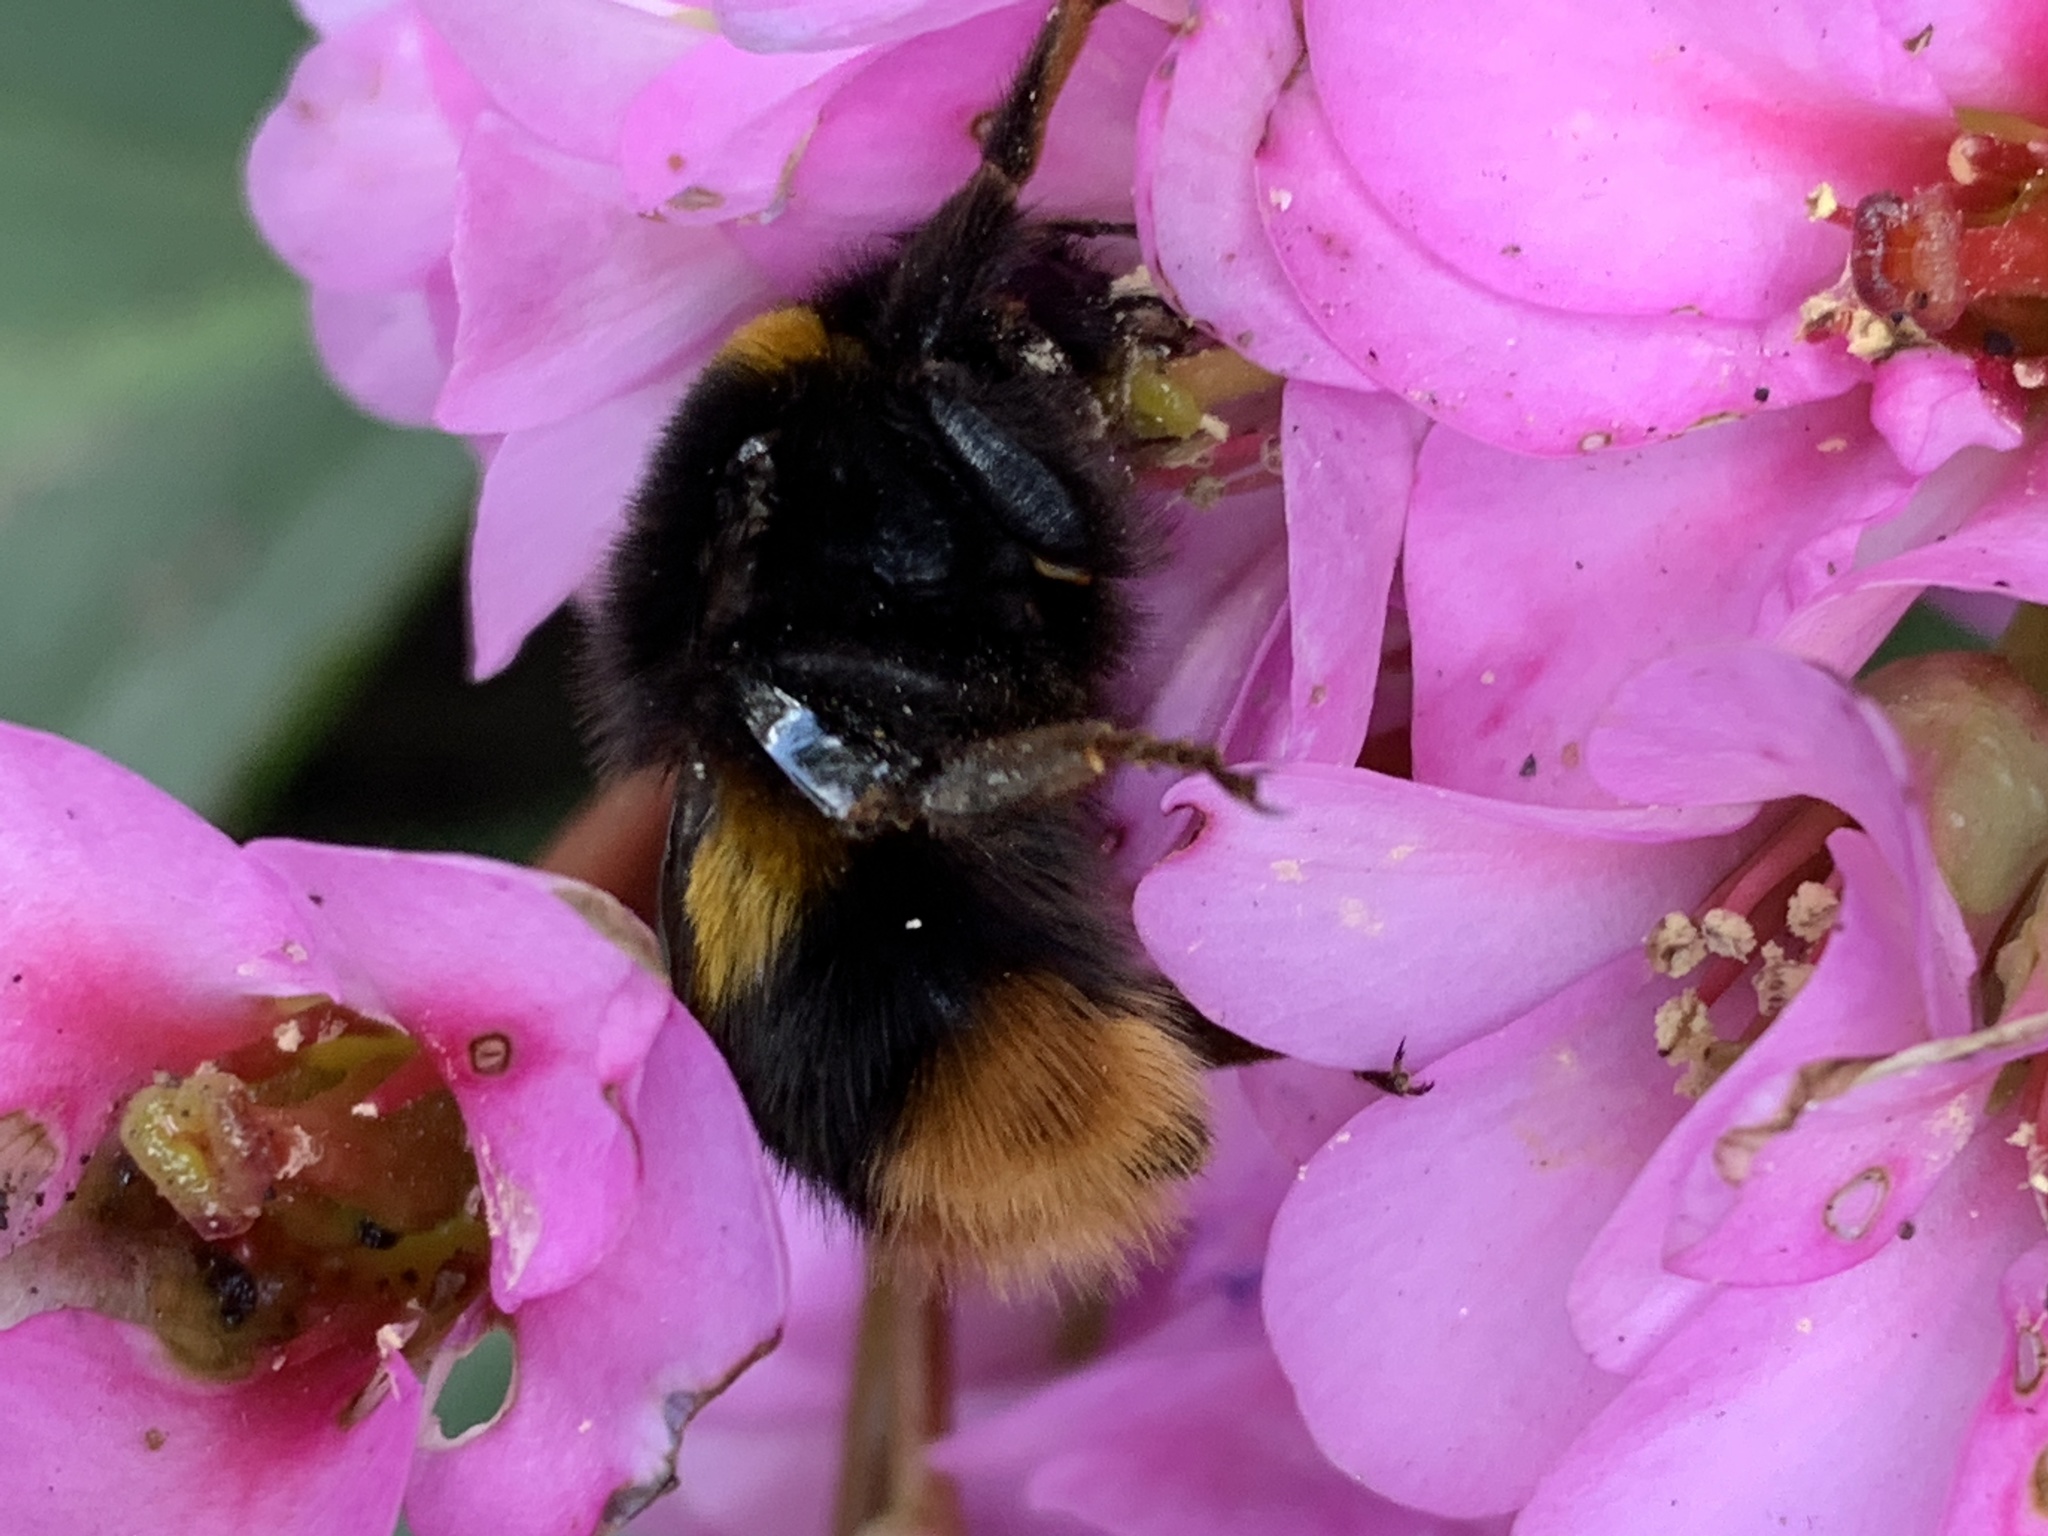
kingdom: Animalia
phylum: Arthropoda
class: Insecta
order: Hymenoptera
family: Apidae
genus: Bombus
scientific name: Bombus terrestris
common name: Buff-tailed bumblebee
